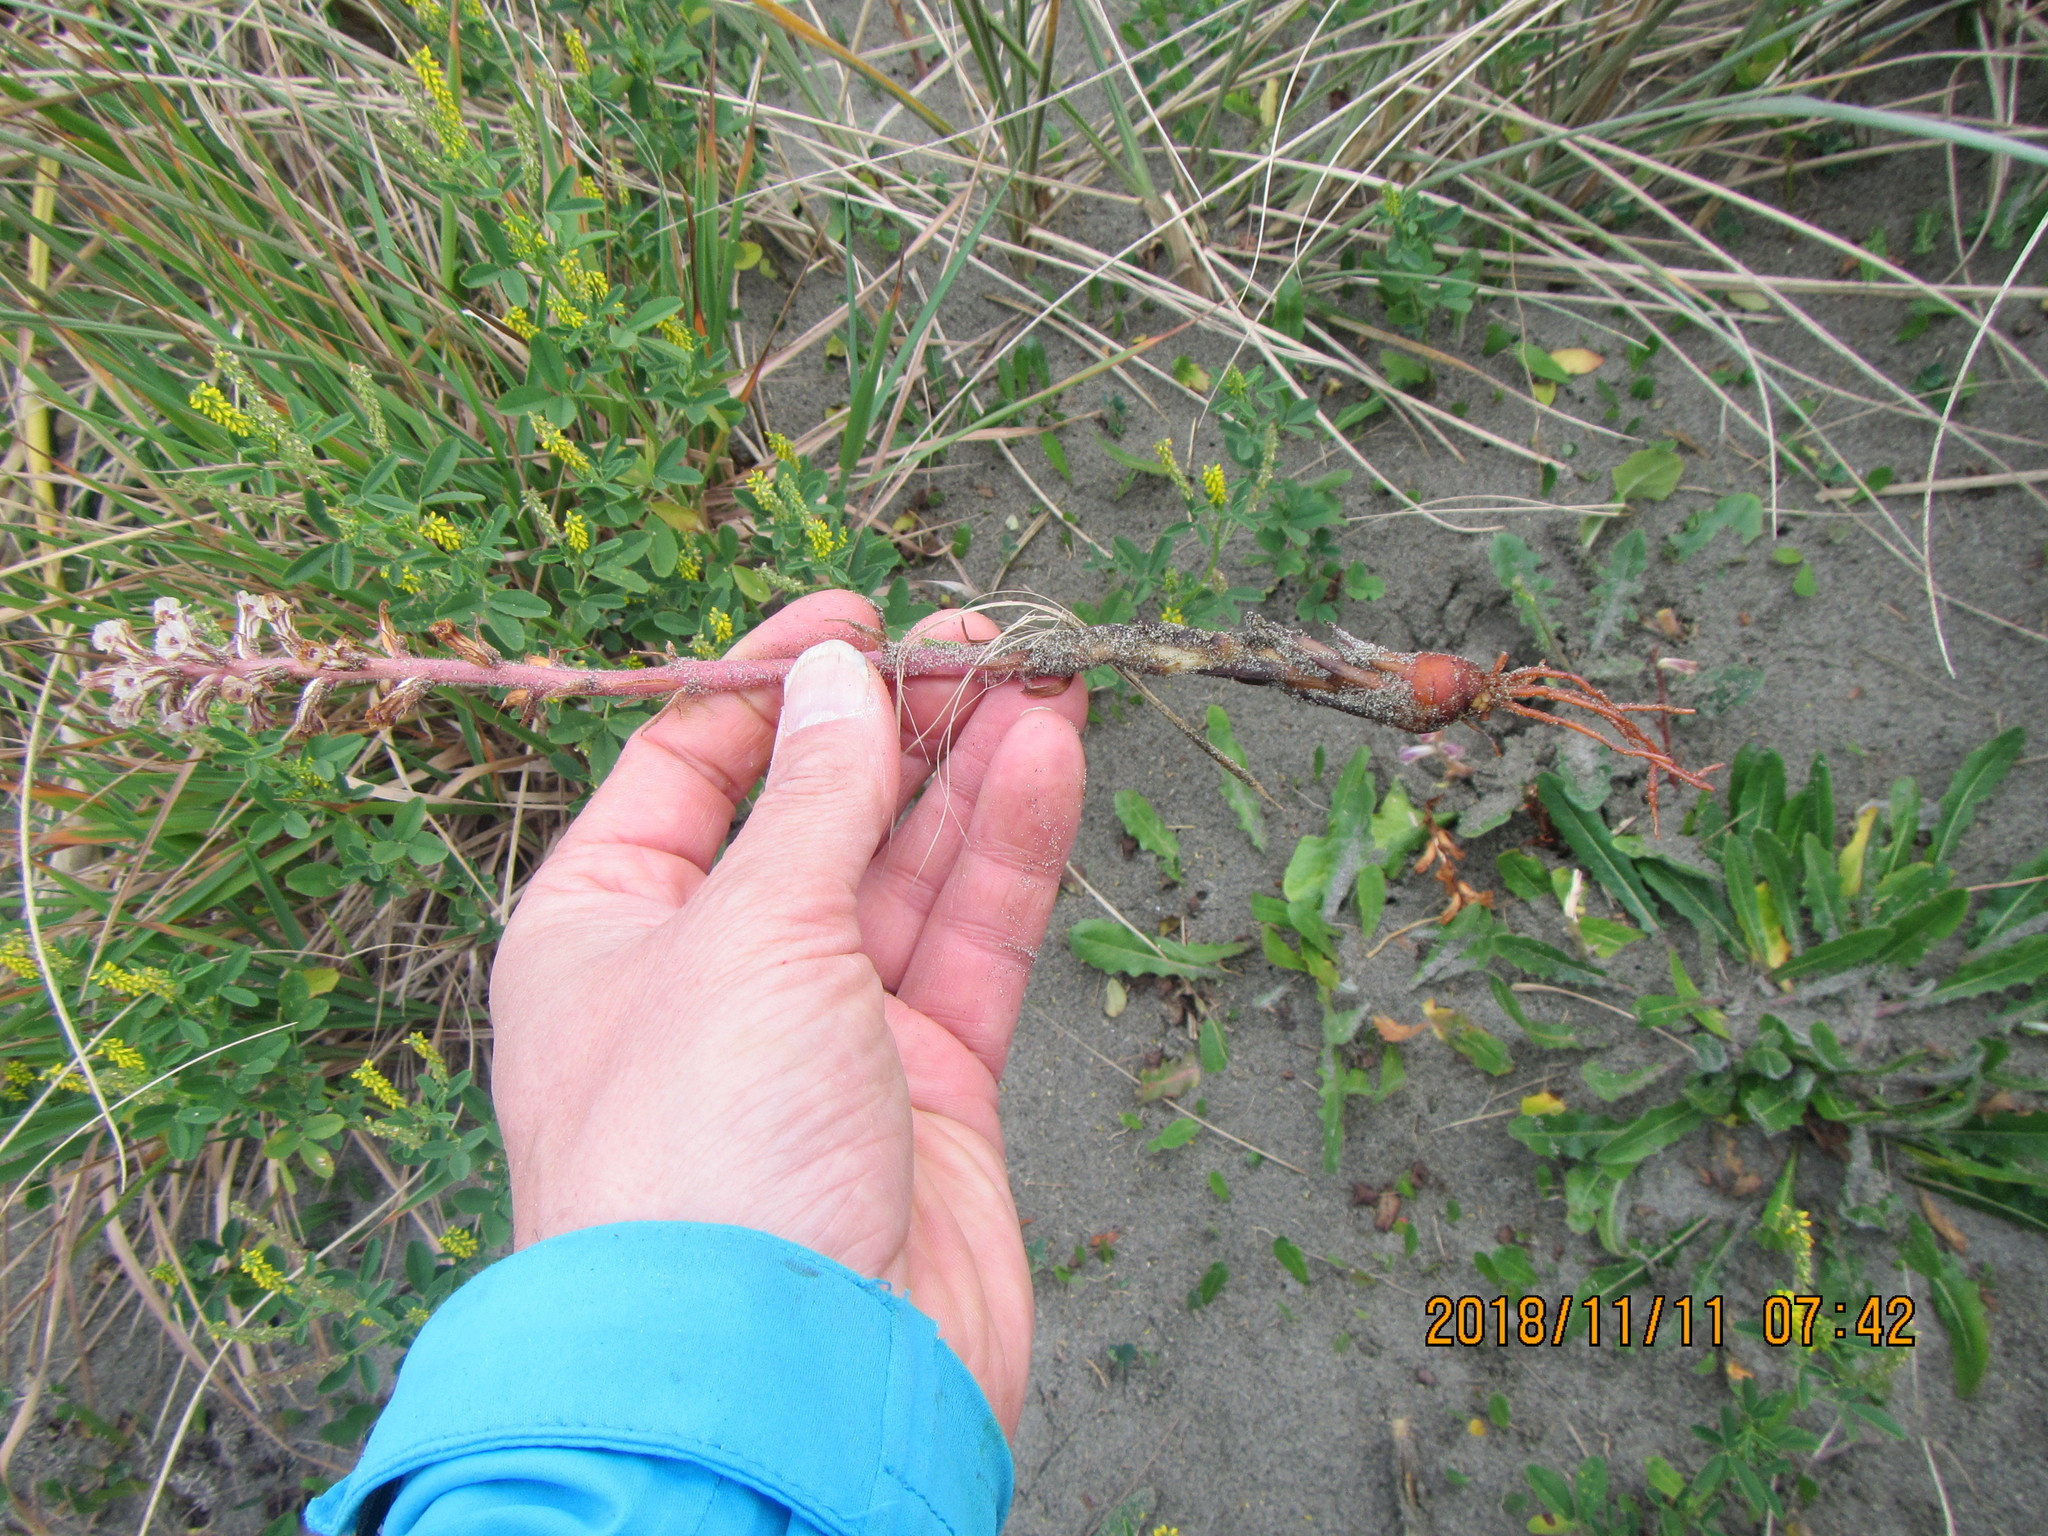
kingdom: Plantae
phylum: Tracheophyta
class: Magnoliopsida
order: Lamiales
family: Orobanchaceae
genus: Orobanche
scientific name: Orobanche minor
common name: Common broomrape
